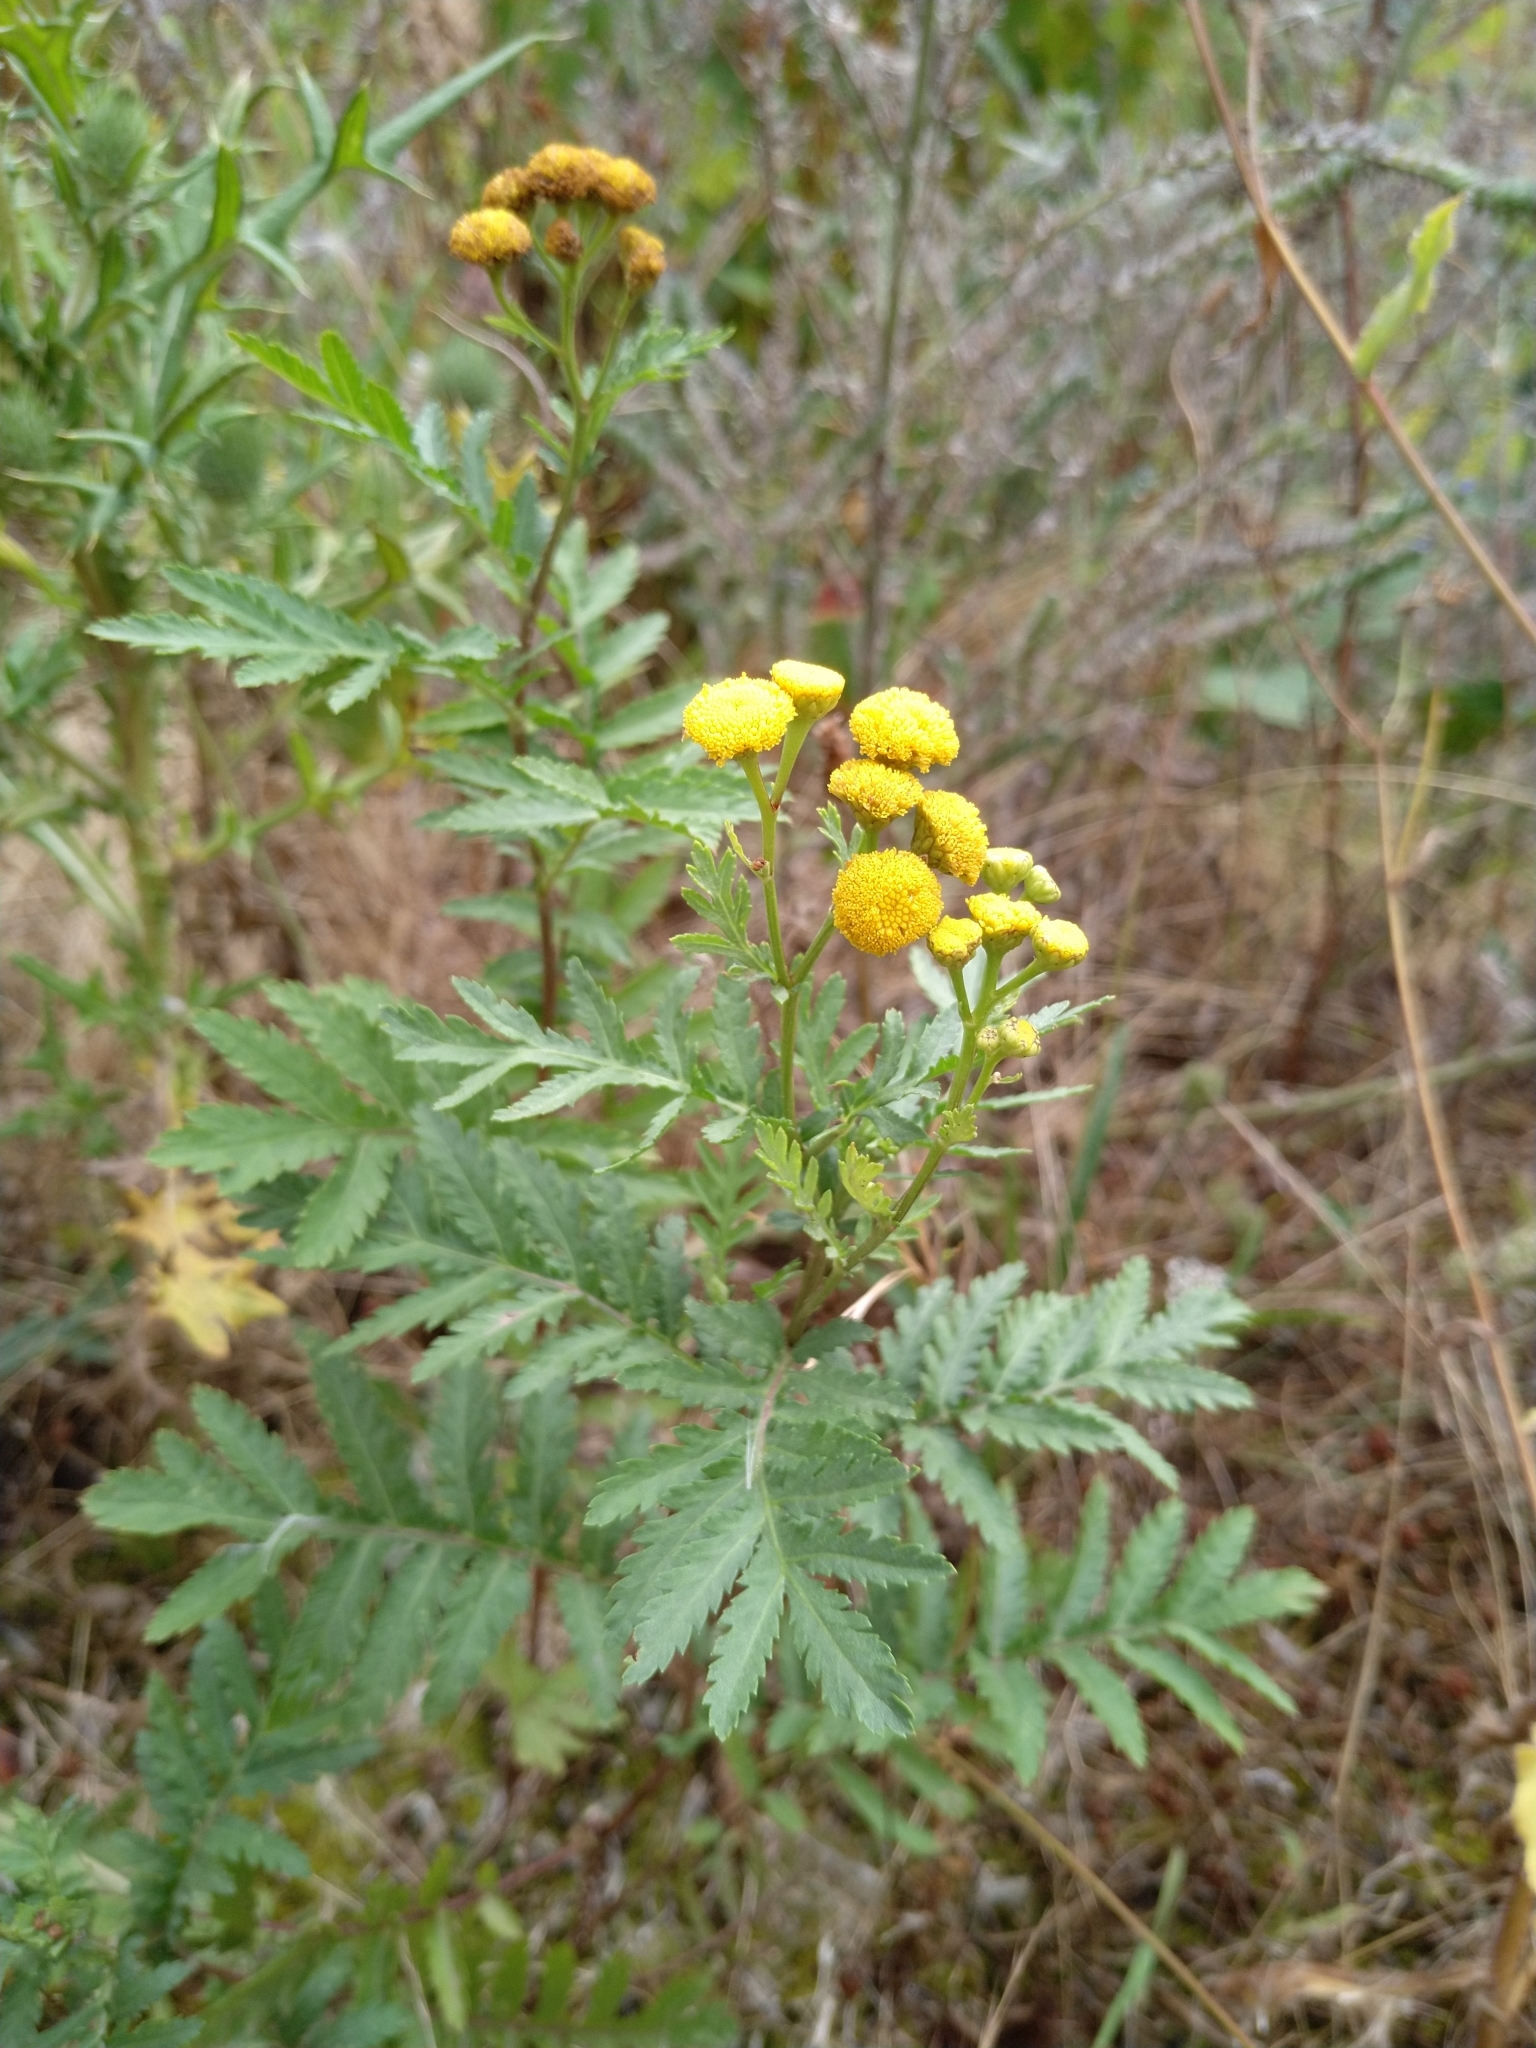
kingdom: Plantae
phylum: Tracheophyta
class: Magnoliopsida
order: Asterales
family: Asteraceae
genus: Tanacetum
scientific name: Tanacetum vulgare
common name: Common tansy
